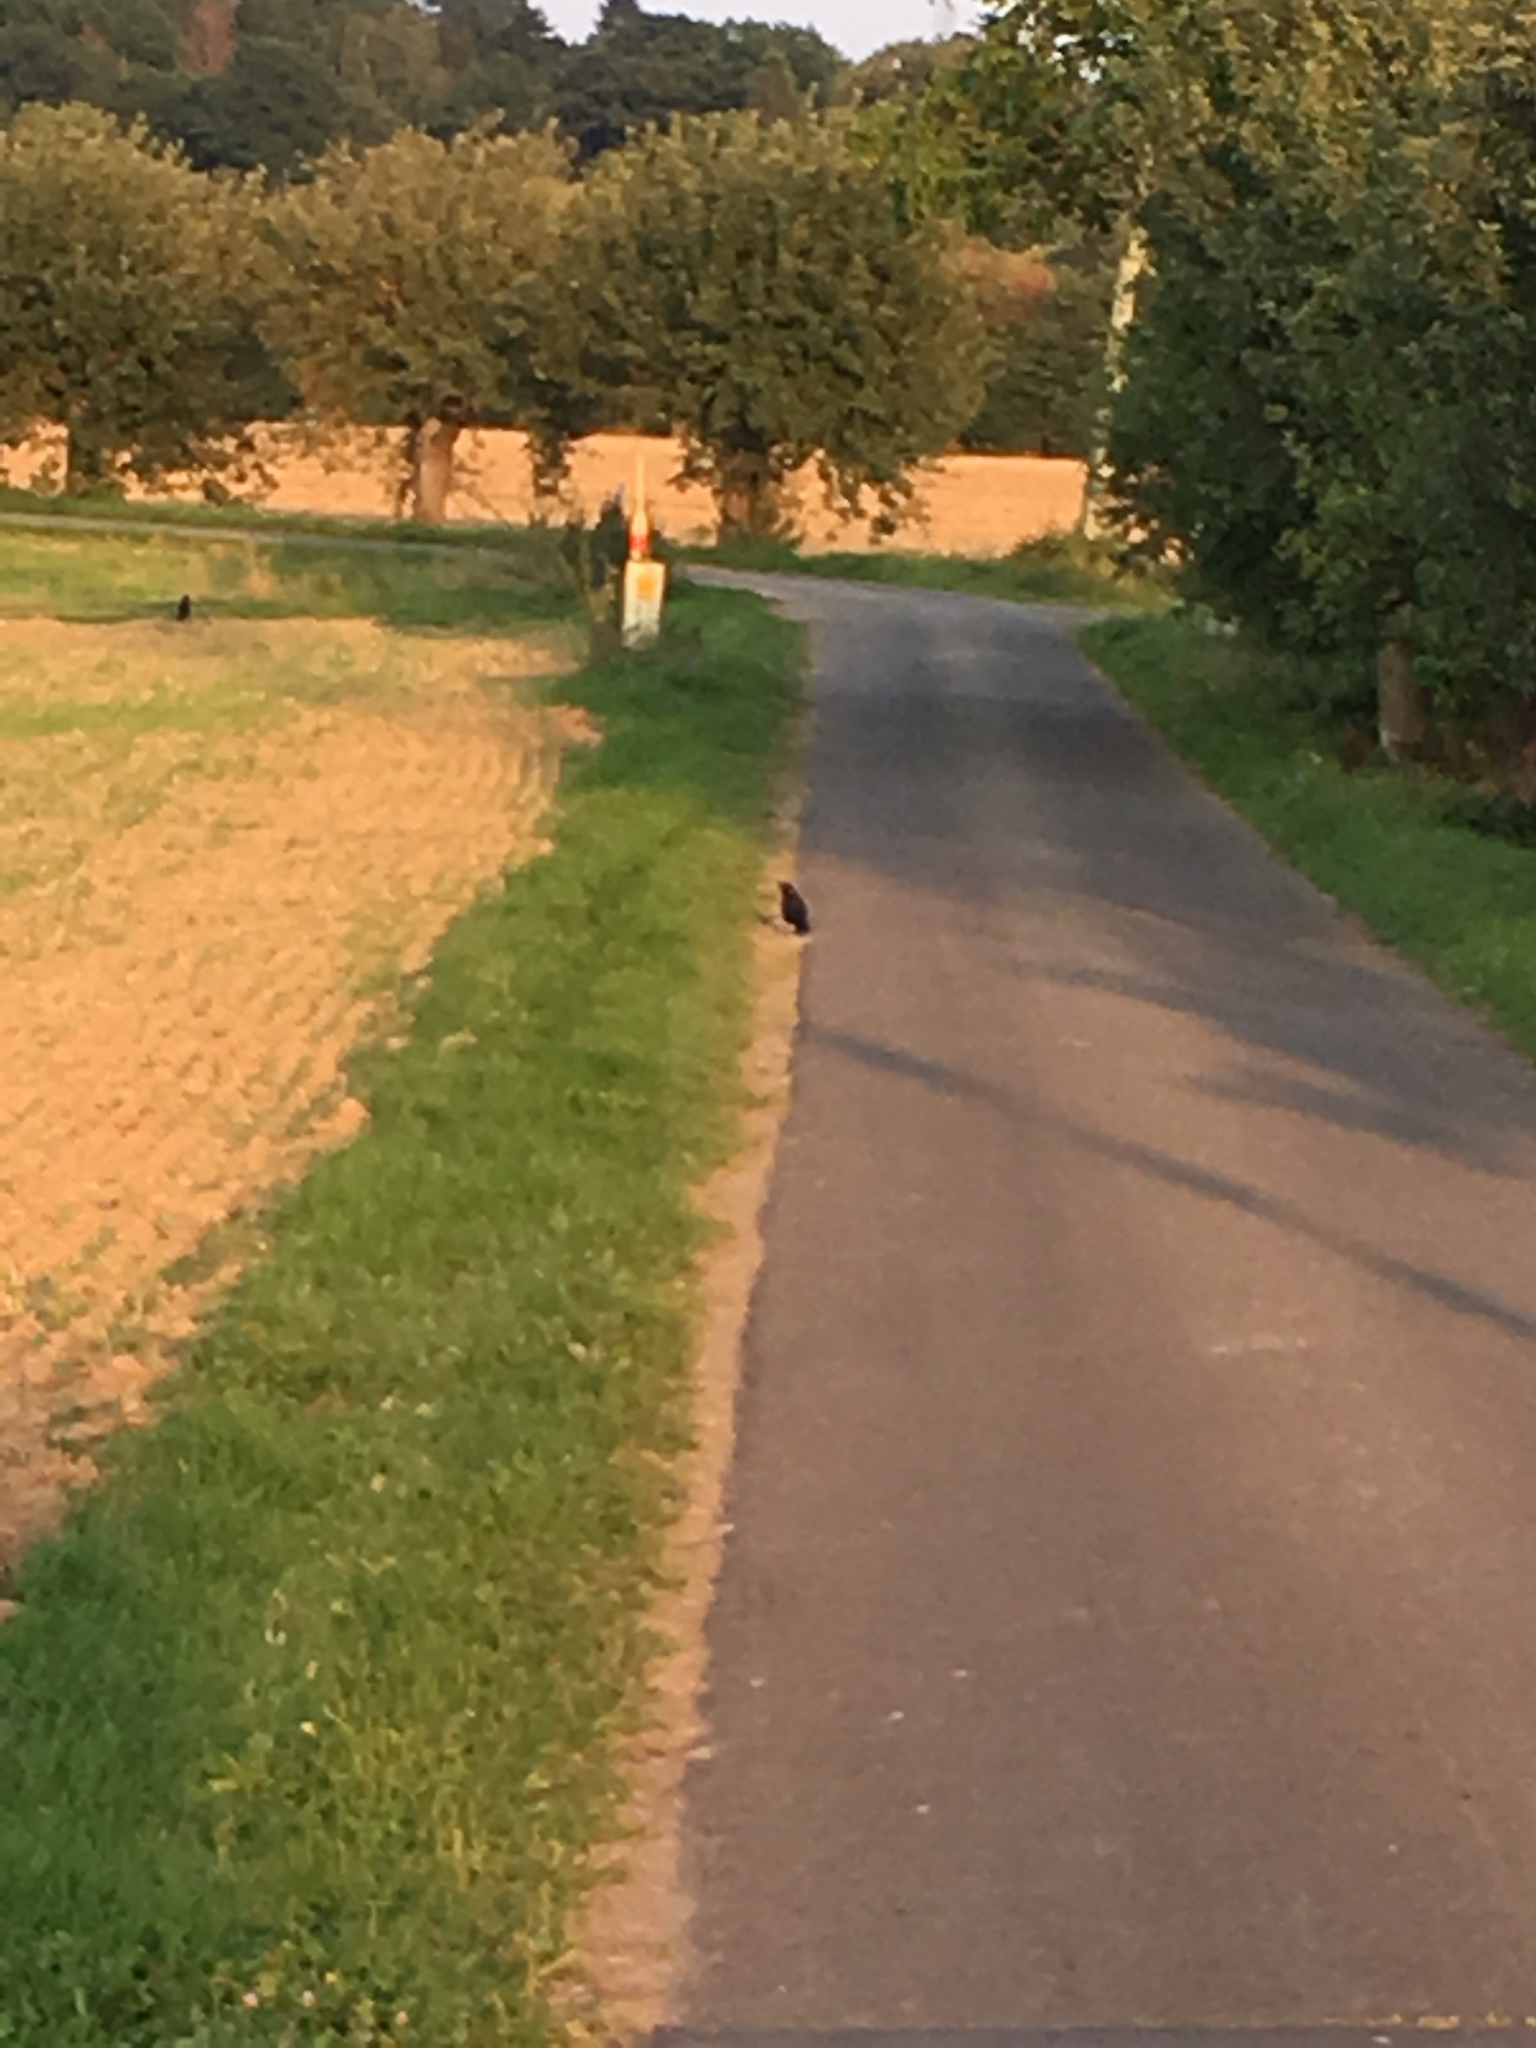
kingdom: Animalia
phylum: Chordata
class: Aves
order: Passeriformes
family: Corvidae
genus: Corvus
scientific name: Corvus corone
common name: Carrion crow
